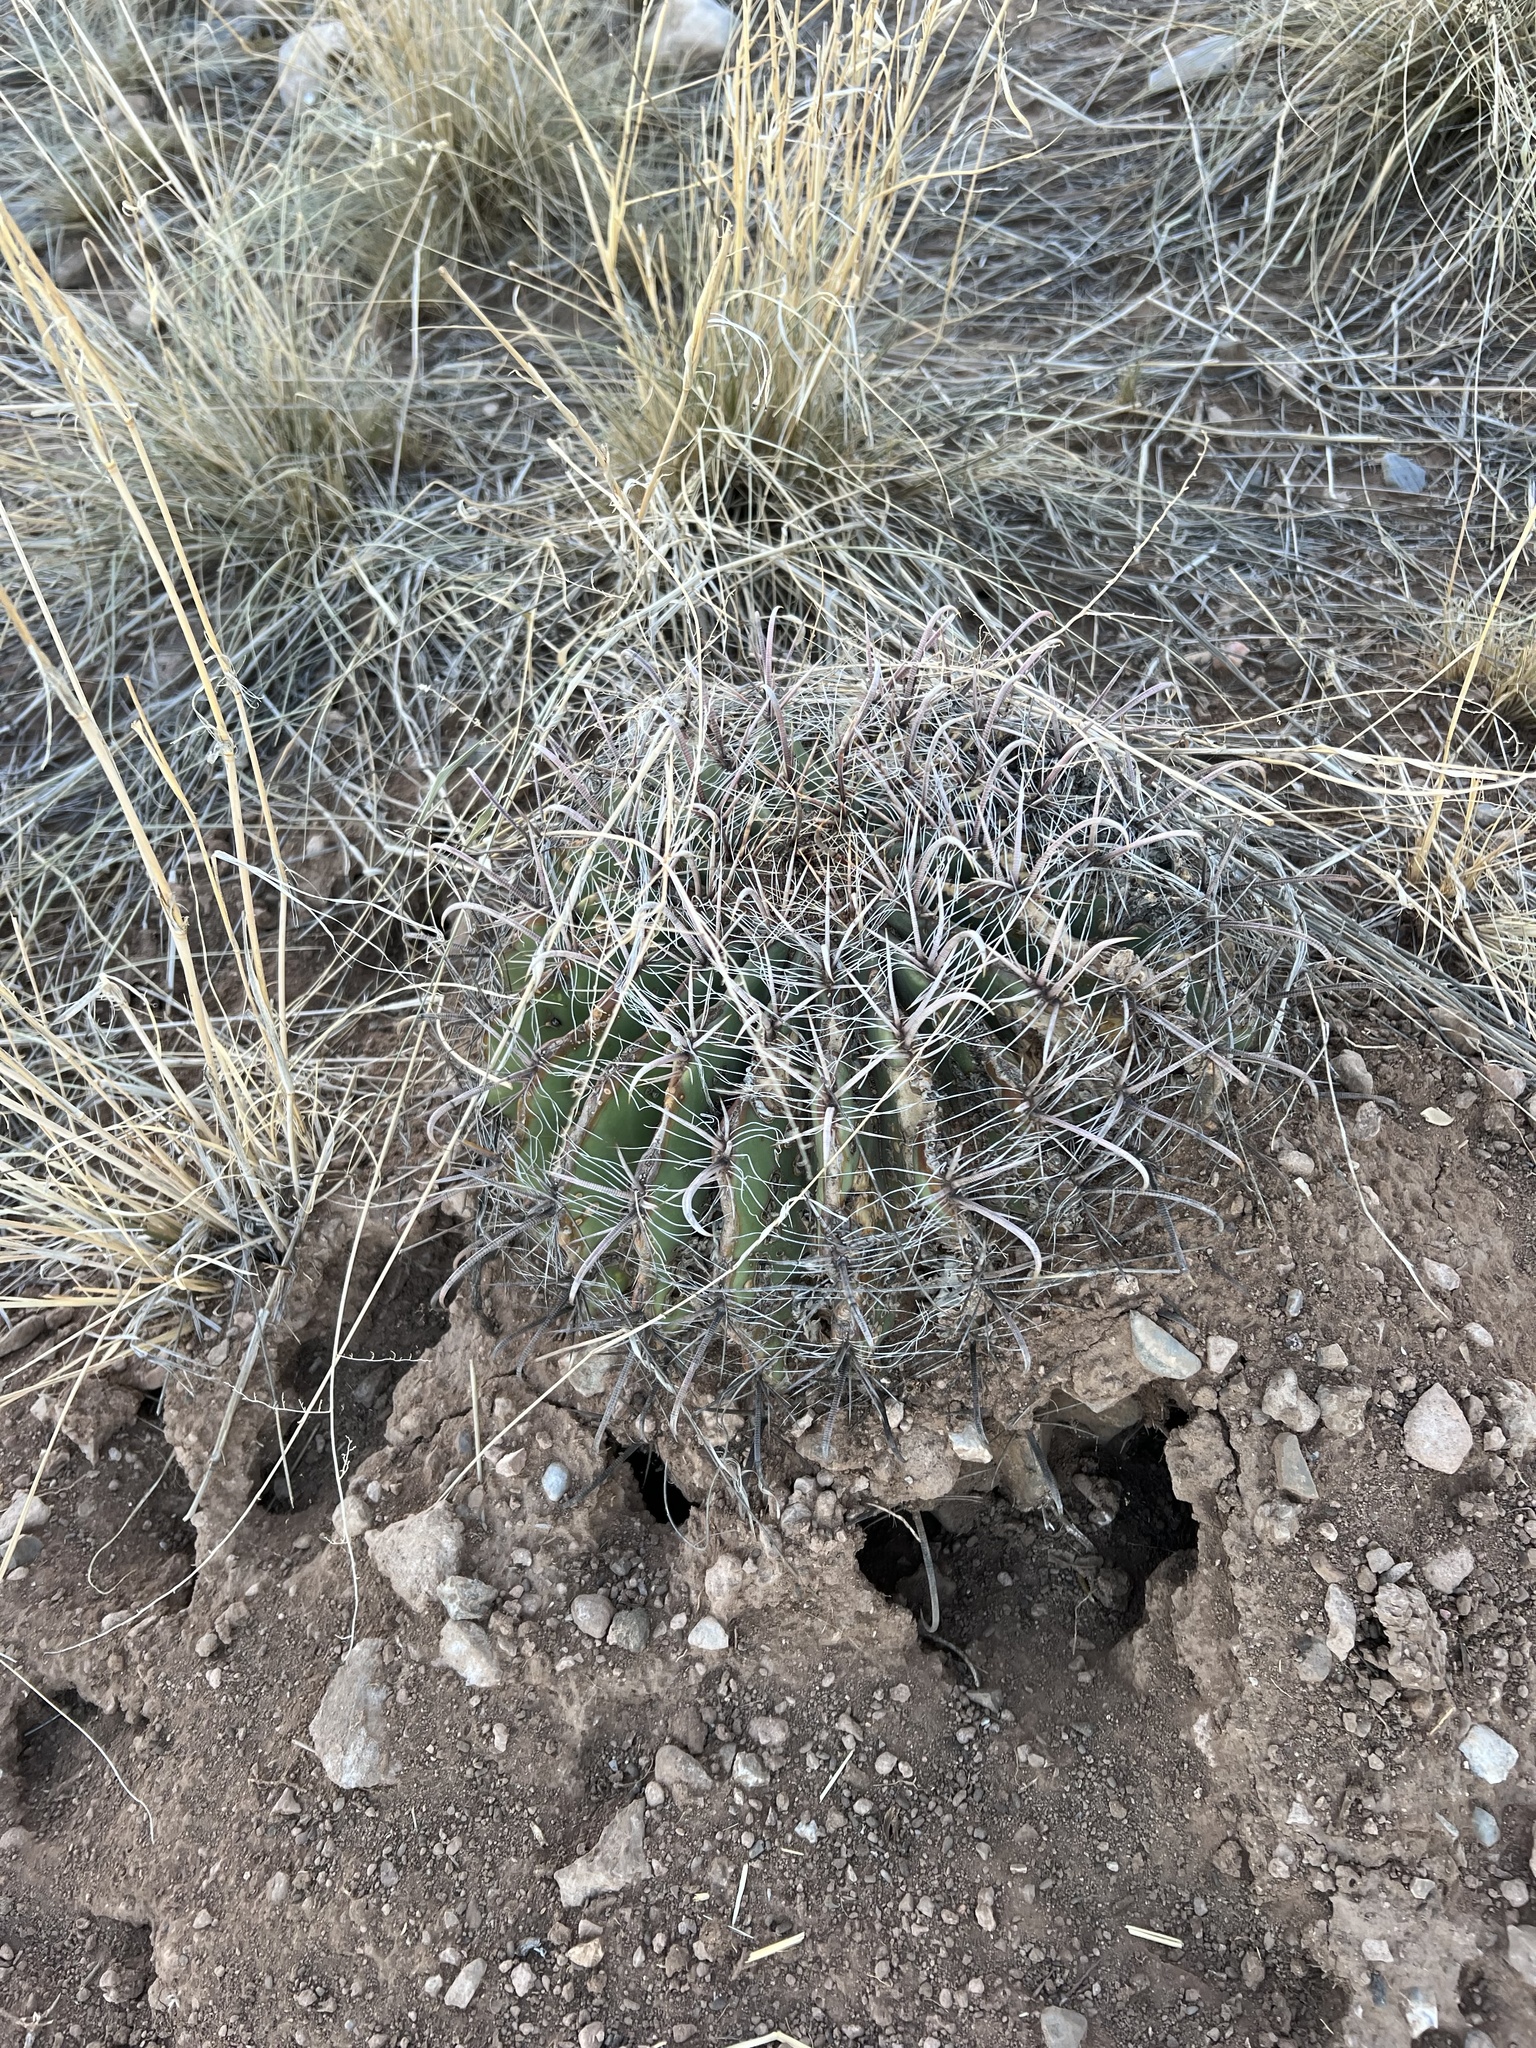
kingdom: Plantae
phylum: Tracheophyta
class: Magnoliopsida
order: Caryophyllales
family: Cactaceae
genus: Ferocactus
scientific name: Ferocactus wislizeni
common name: Candy barrel cactus
